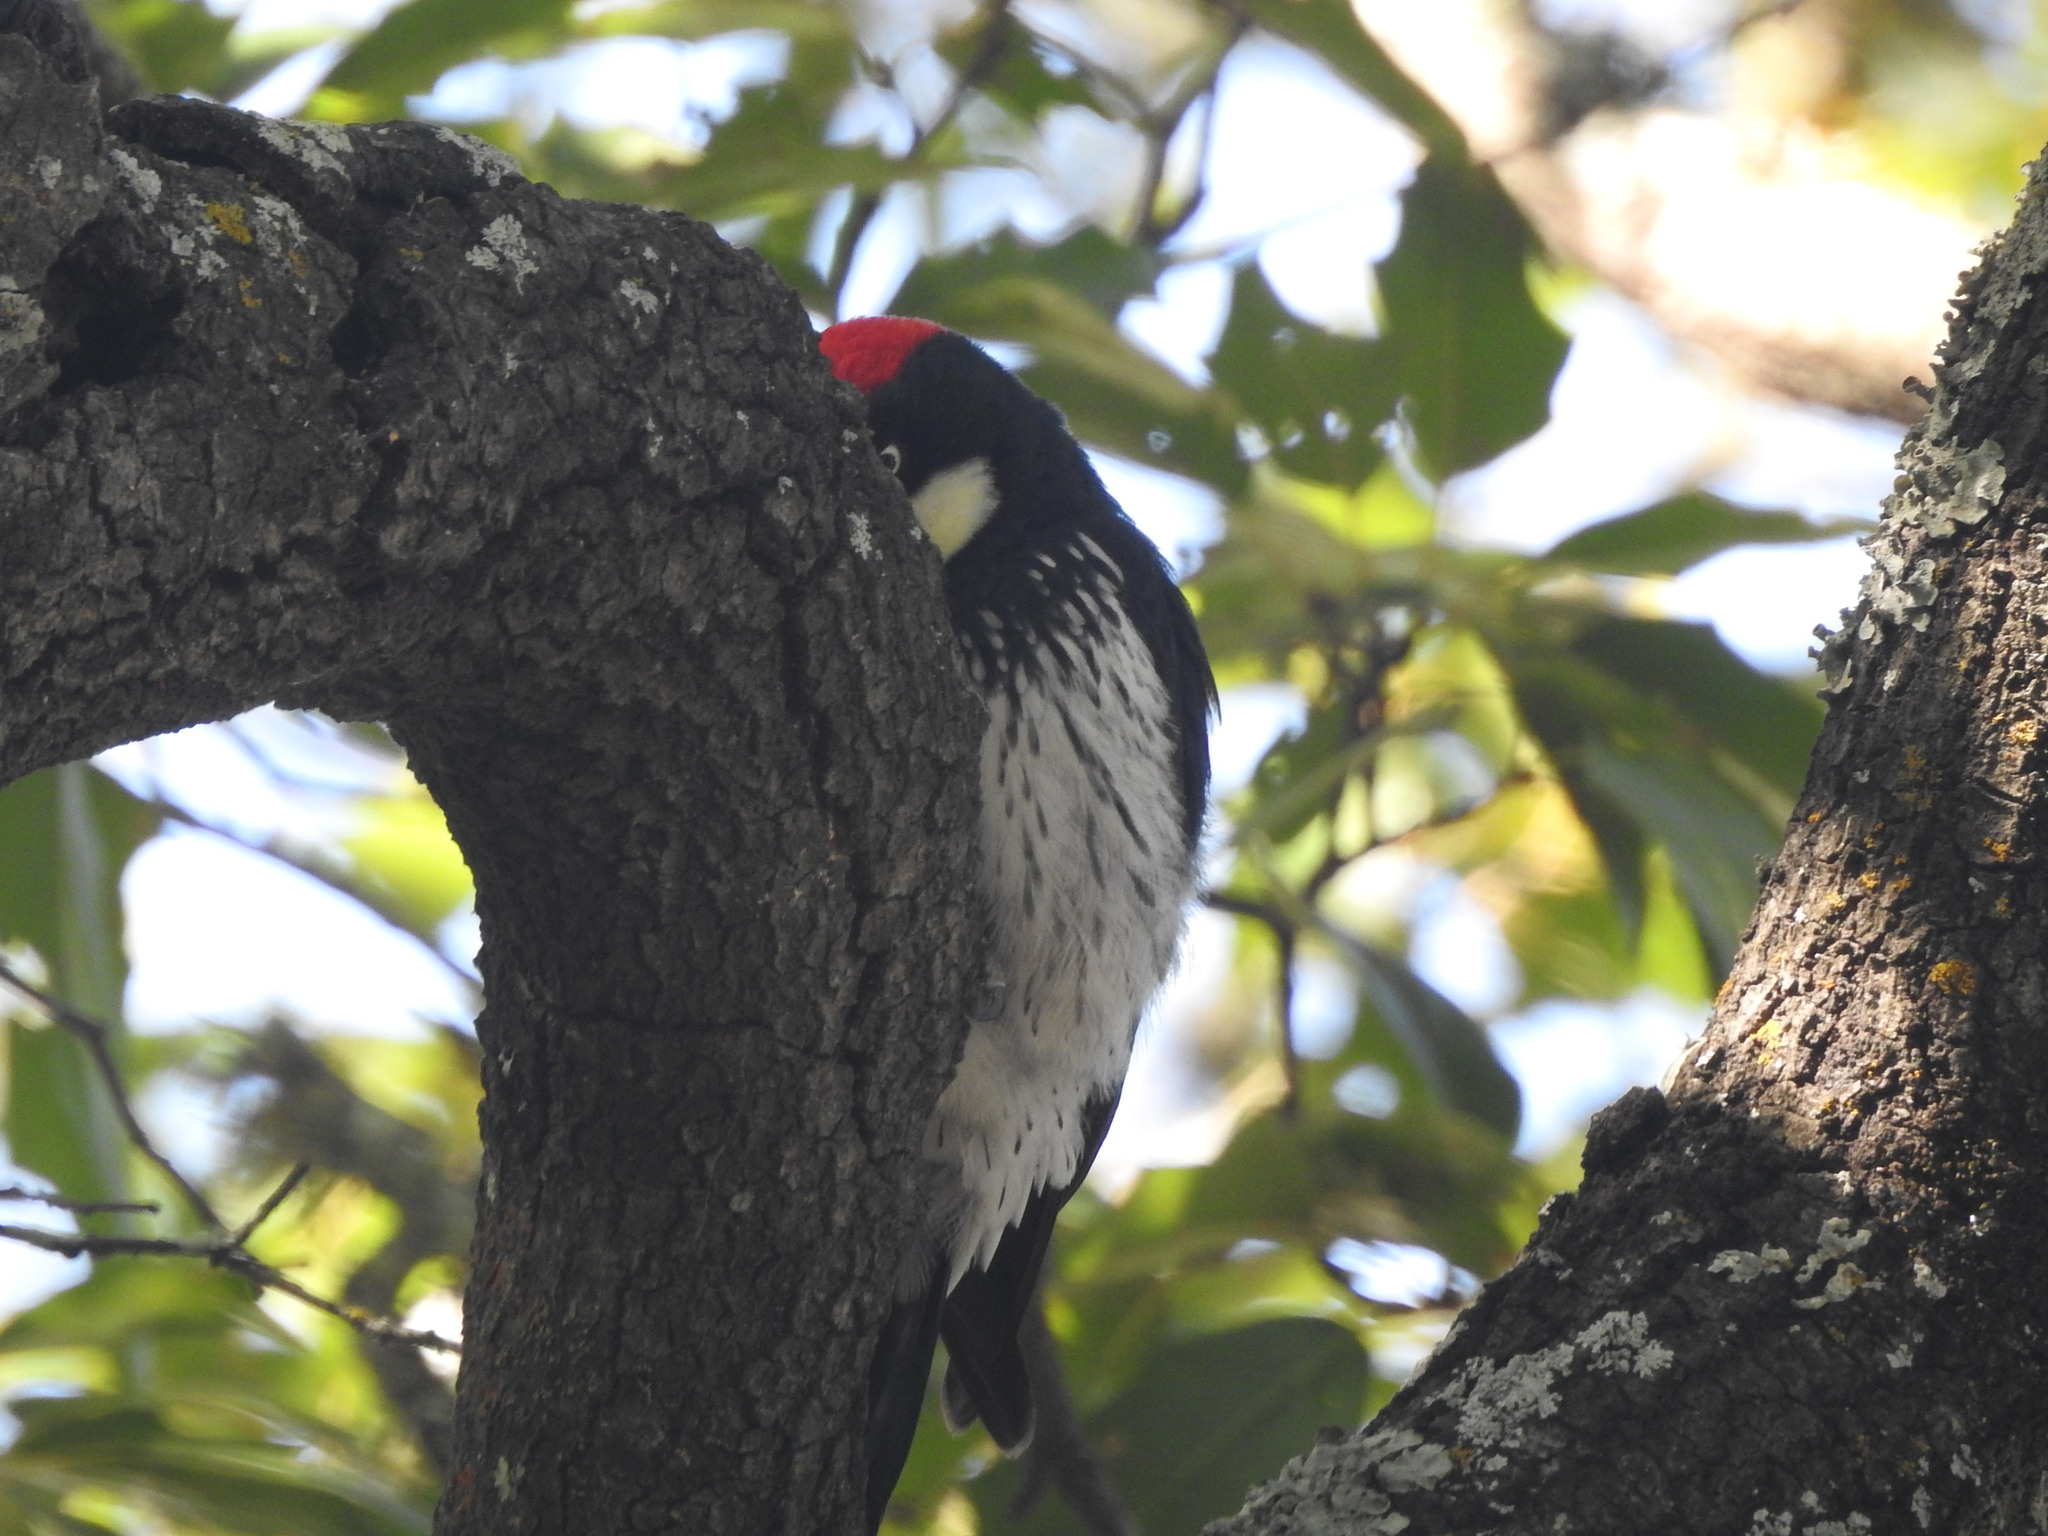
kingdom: Animalia
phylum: Chordata
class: Aves
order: Piciformes
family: Picidae
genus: Melanerpes
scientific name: Melanerpes formicivorus
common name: Acorn woodpecker
